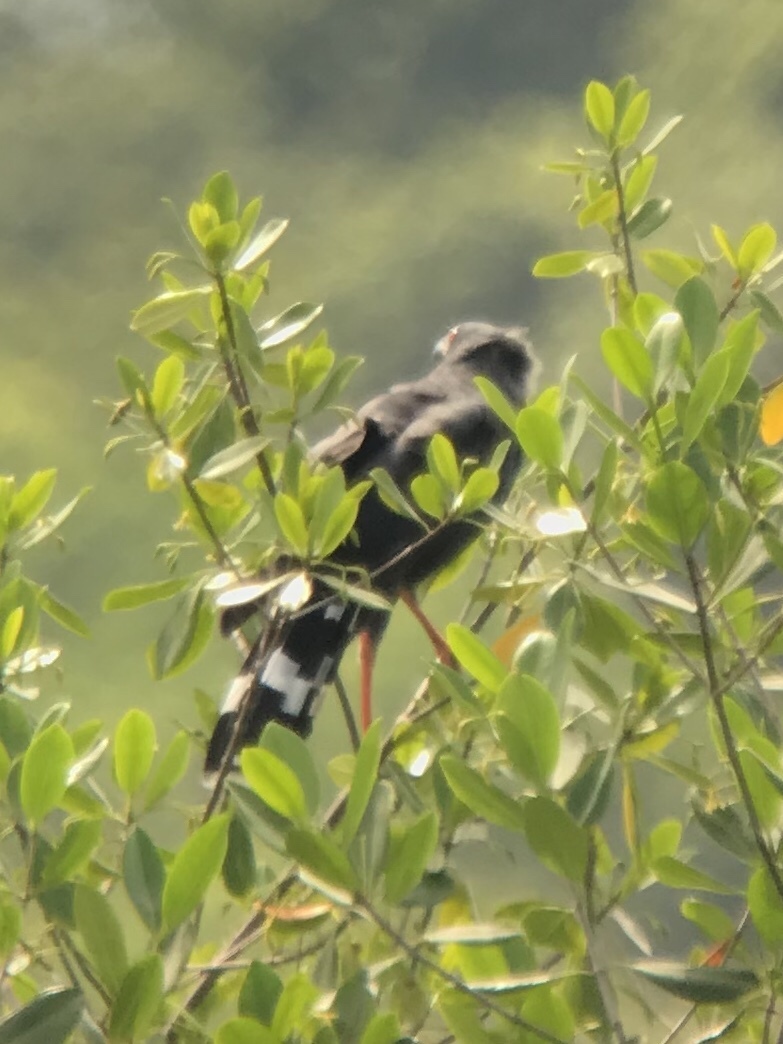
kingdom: Animalia
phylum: Chordata
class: Aves
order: Accipitriformes
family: Accipitridae
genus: Geranospiza
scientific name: Geranospiza caerulescens
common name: Crane hawk
